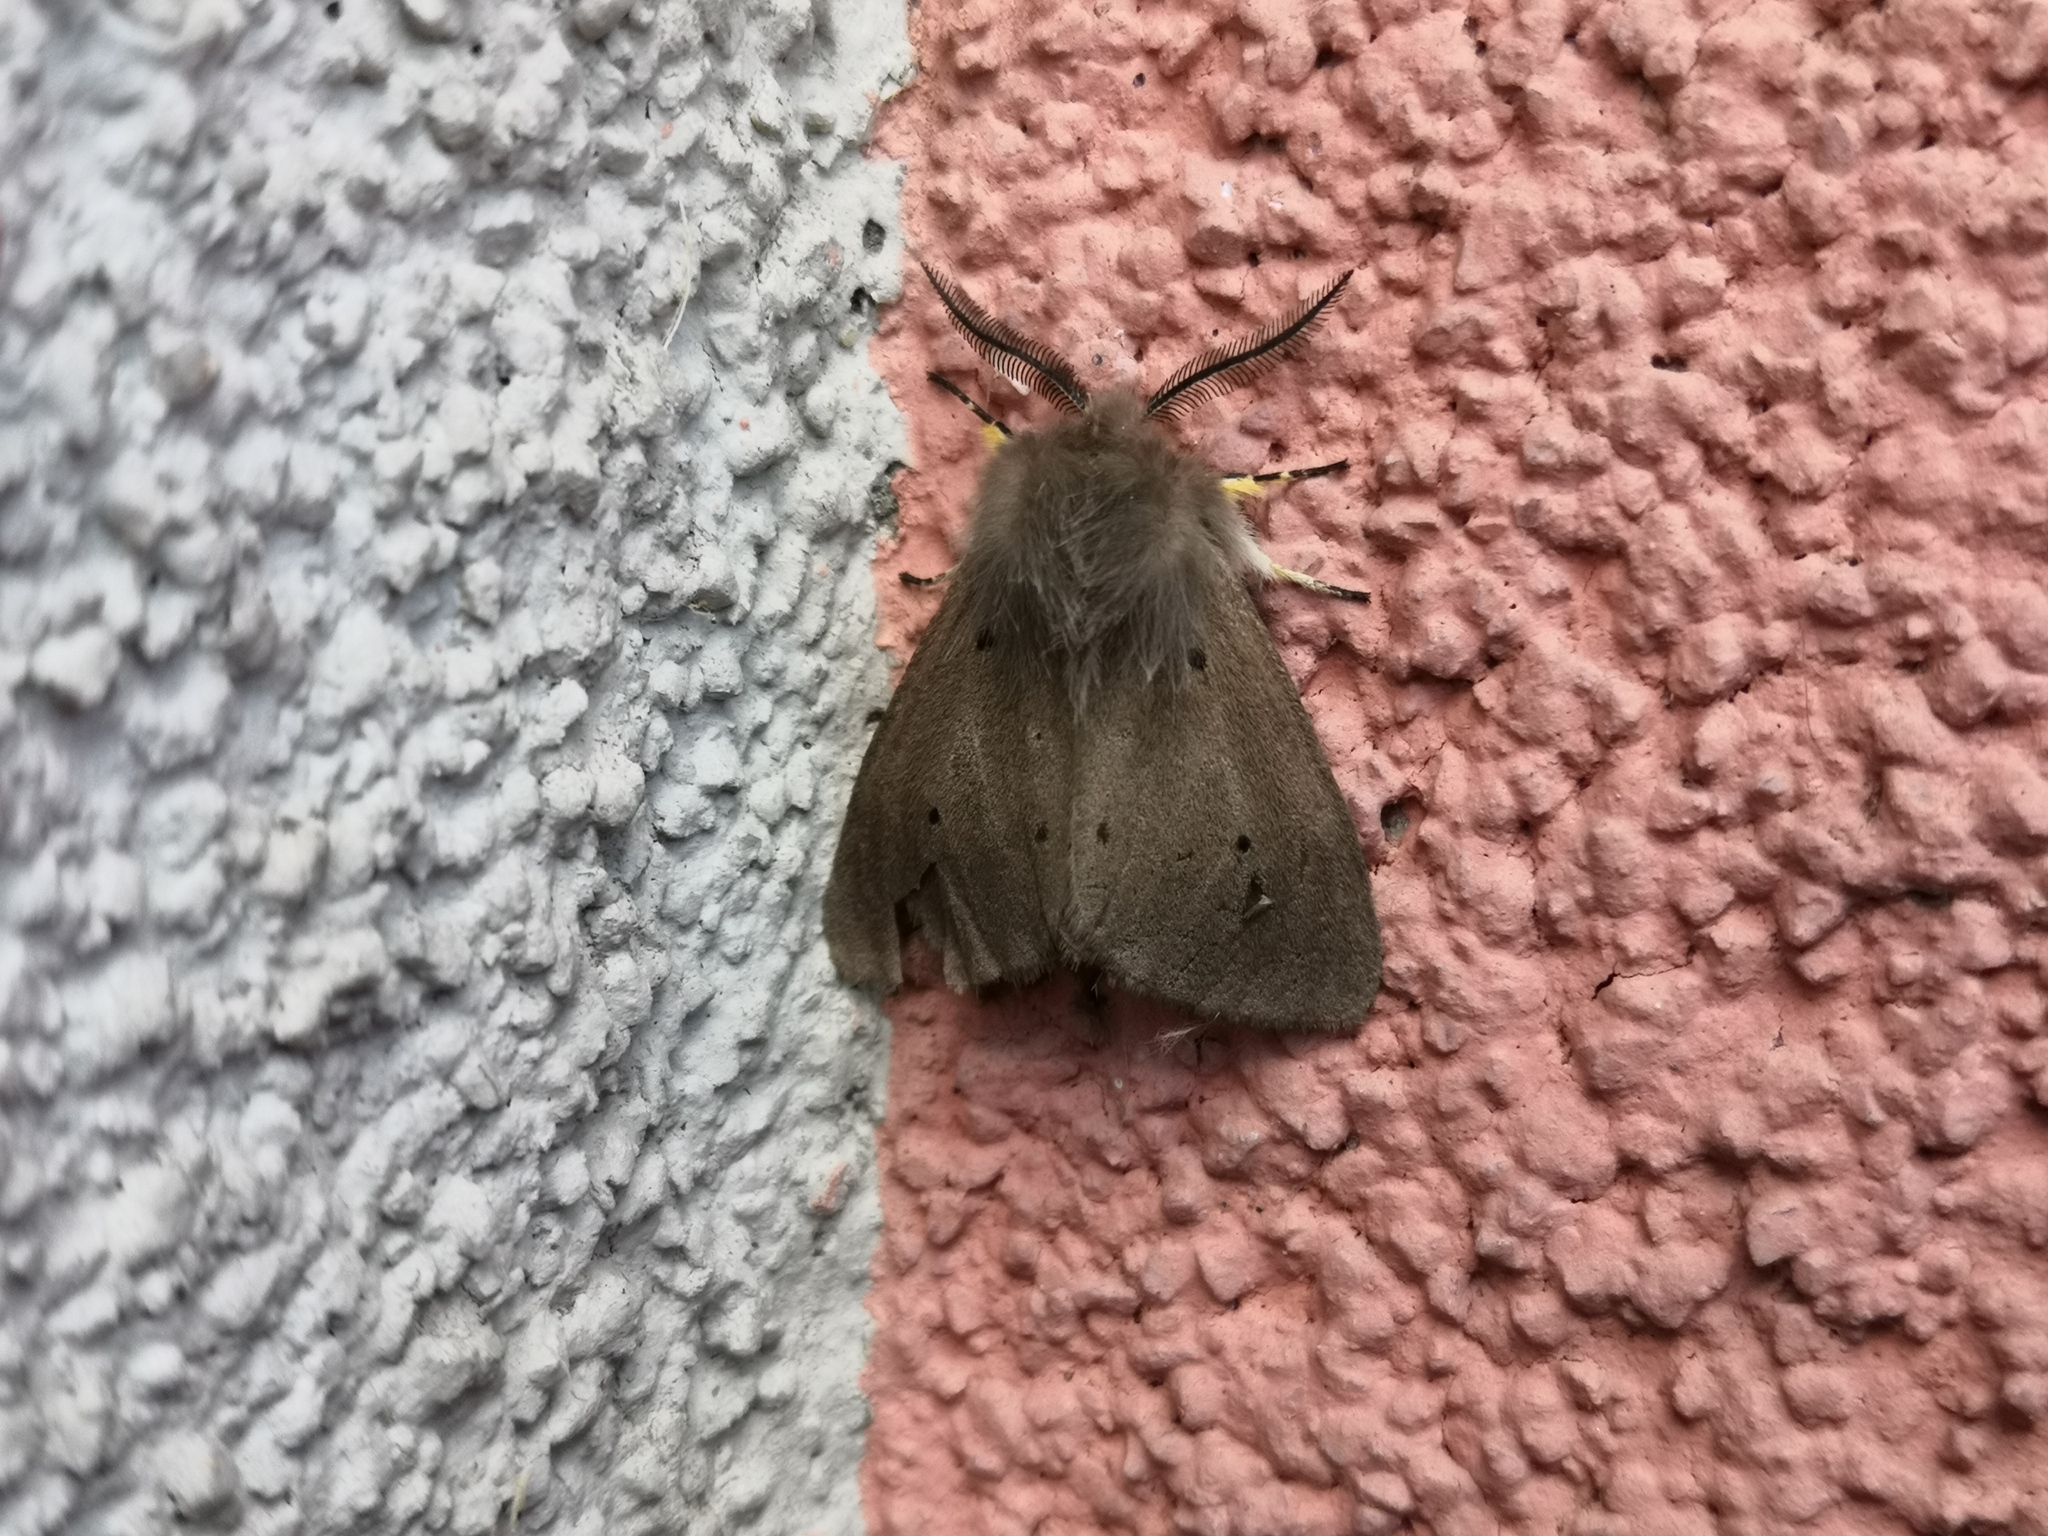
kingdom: Animalia
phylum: Arthropoda
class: Insecta
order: Lepidoptera
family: Erebidae
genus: Diaphora
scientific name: Diaphora mendica
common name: Muslin moth
